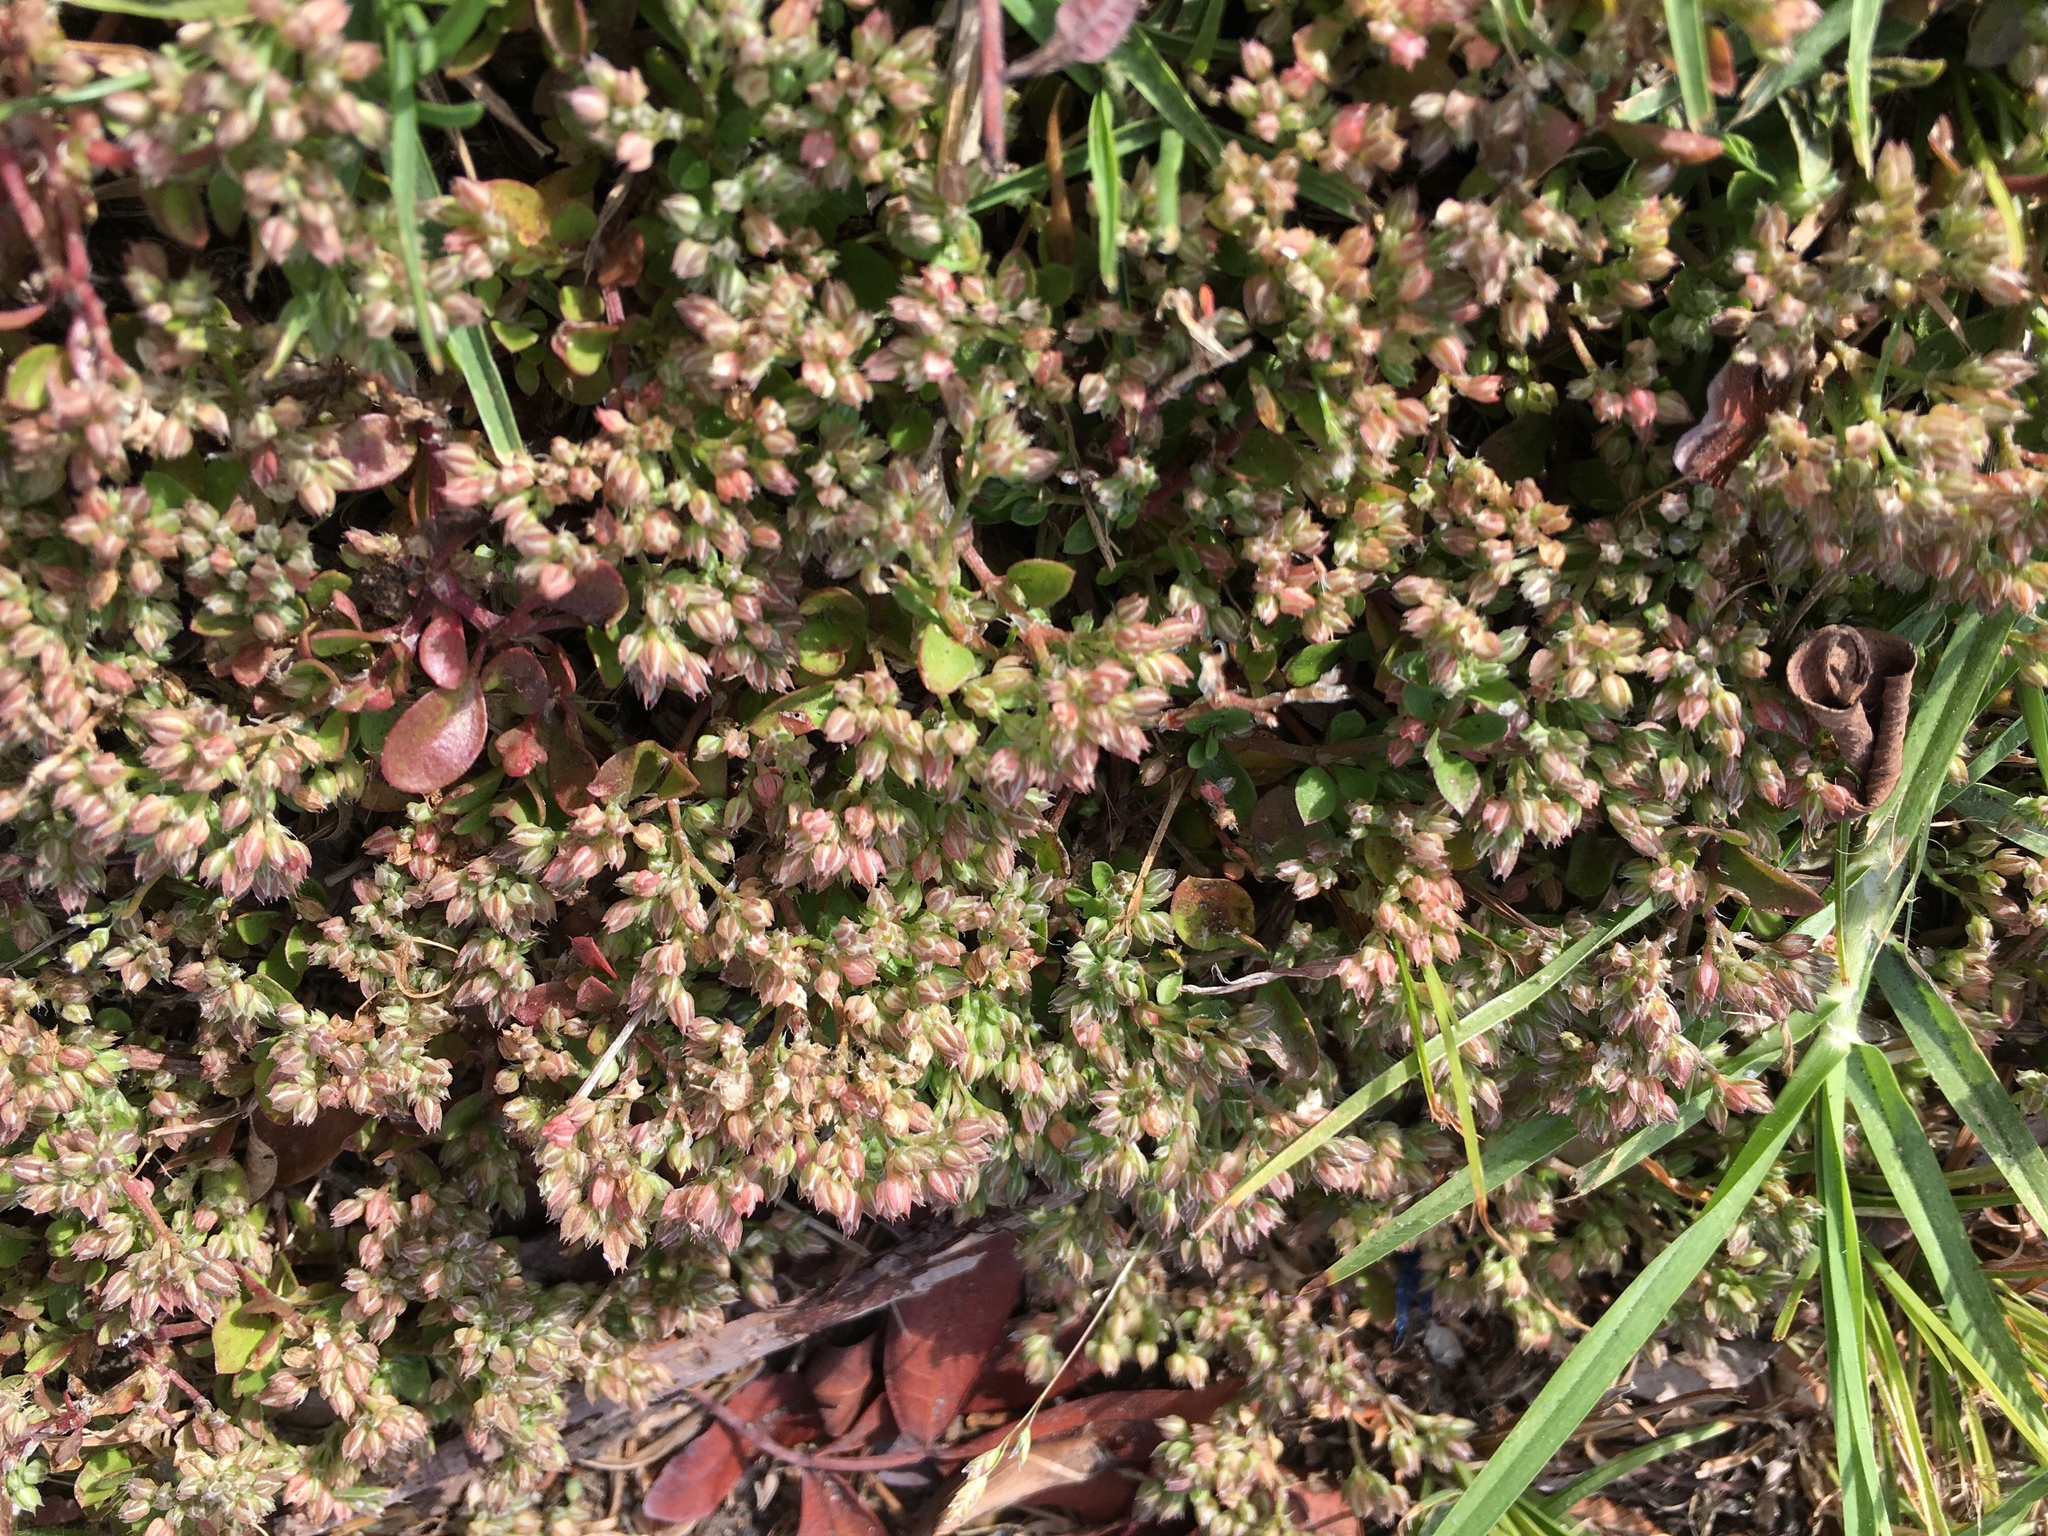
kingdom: Plantae
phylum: Tracheophyta
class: Magnoliopsida
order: Caryophyllales
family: Caryophyllaceae
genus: Polycarpon
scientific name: Polycarpon tetraphyllum
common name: Four-leaved all-seed
